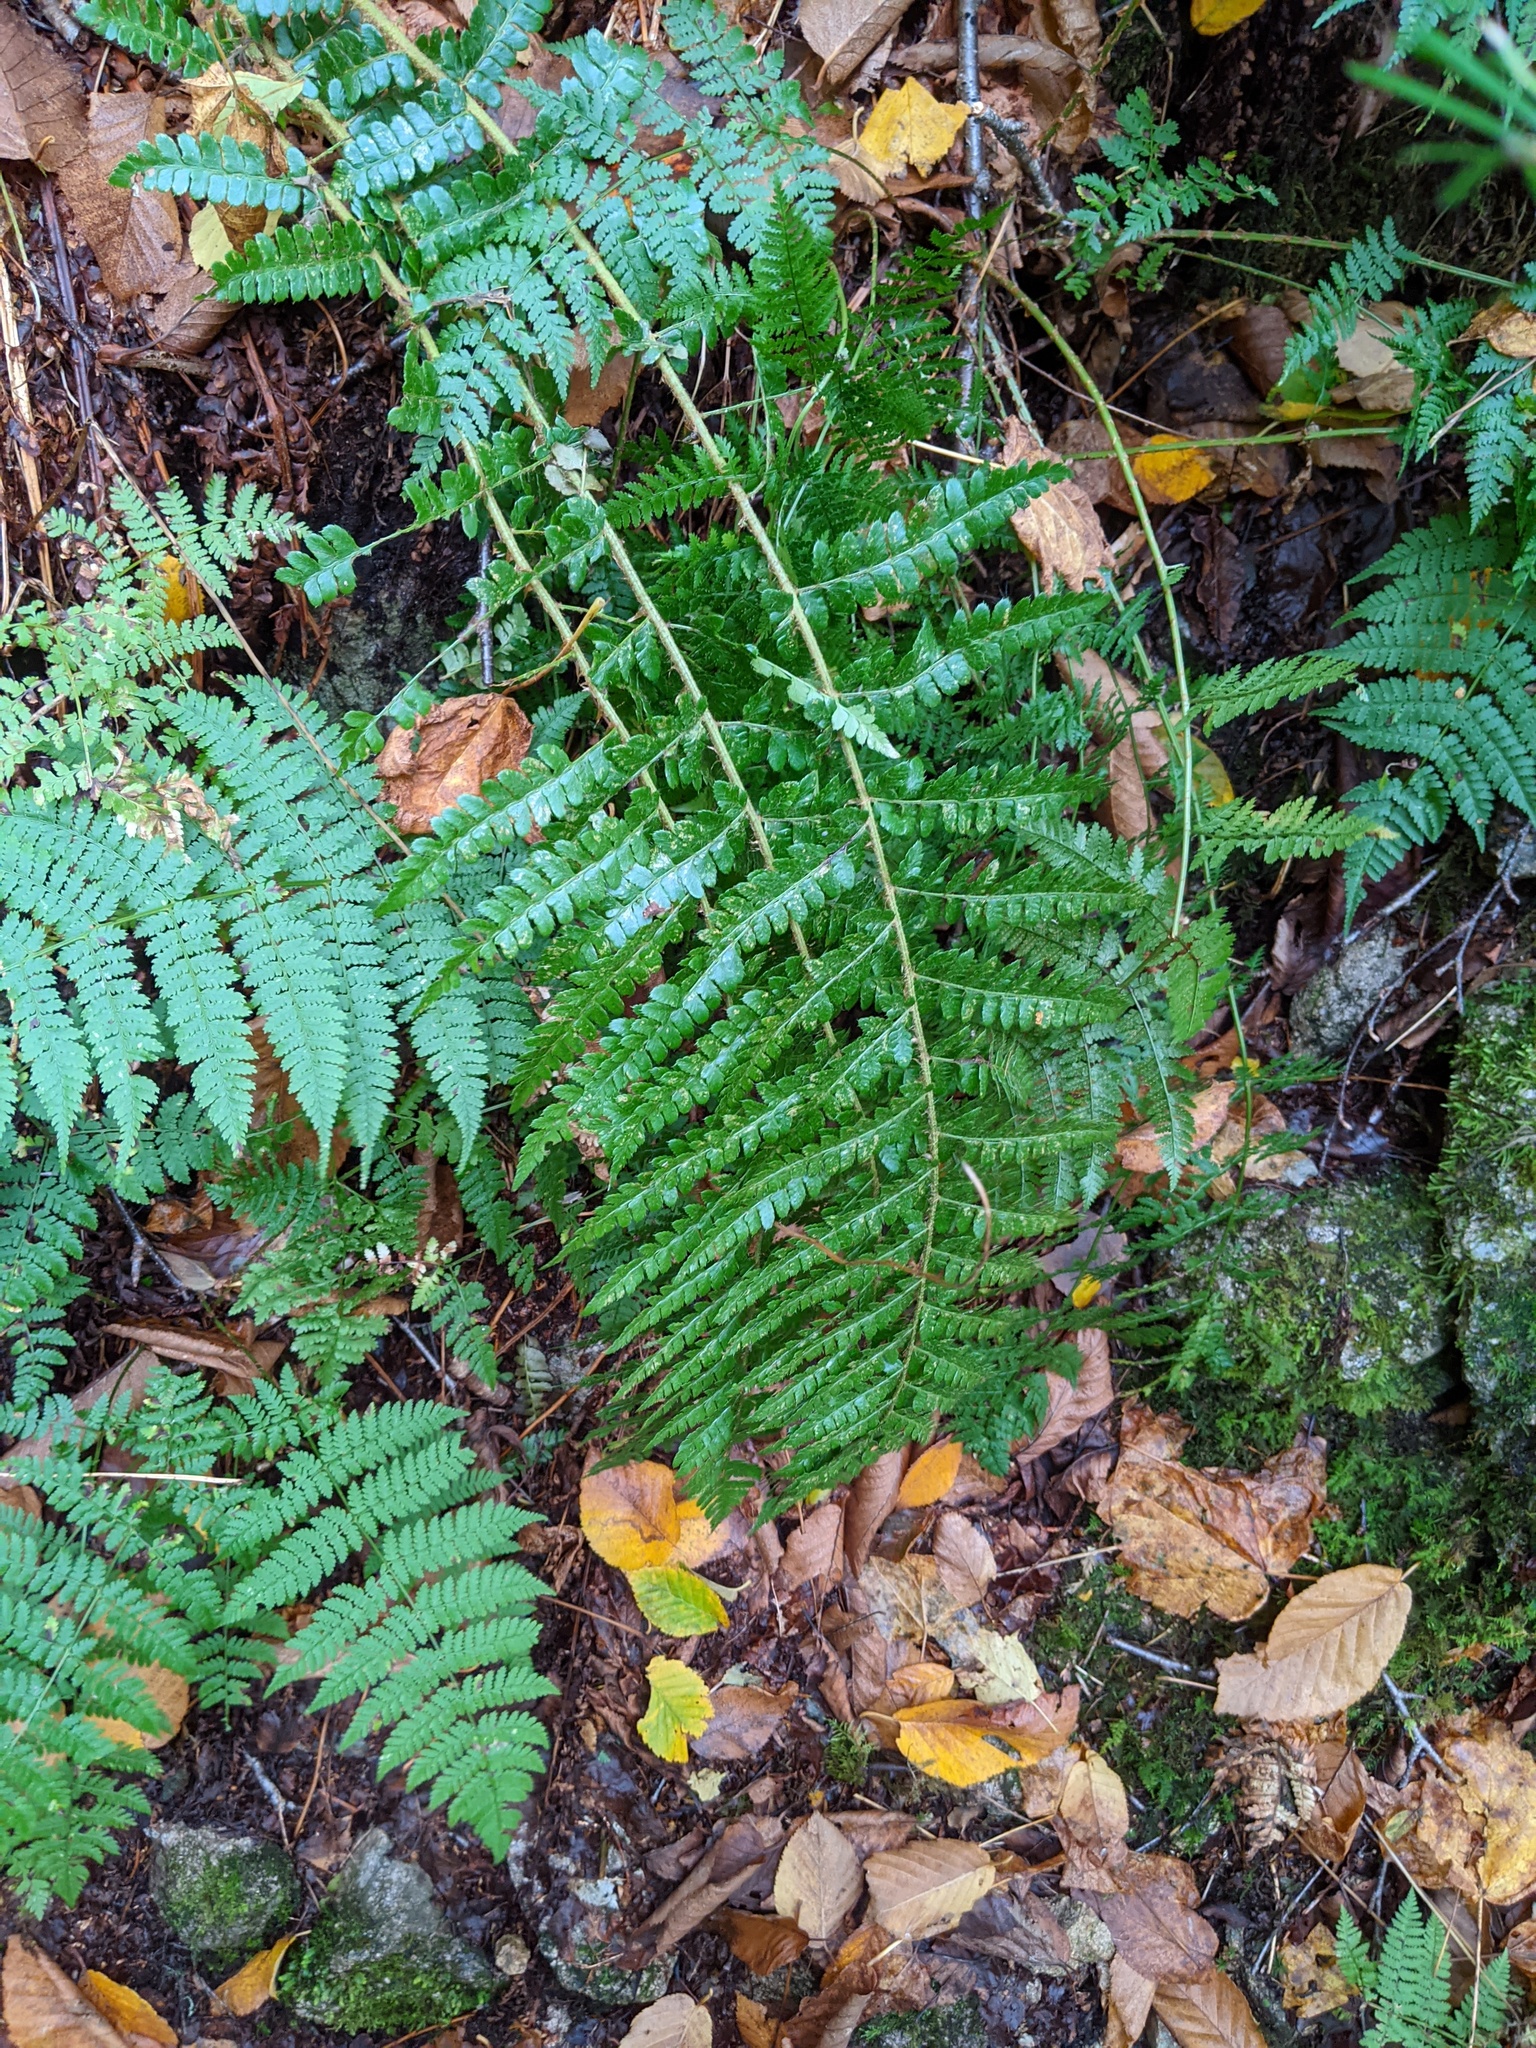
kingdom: Plantae
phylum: Tracheophyta
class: Polypodiopsida
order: Polypodiales
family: Dryopteridaceae
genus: Polystichum
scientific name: Polystichum braunii
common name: Braun's holly fern
